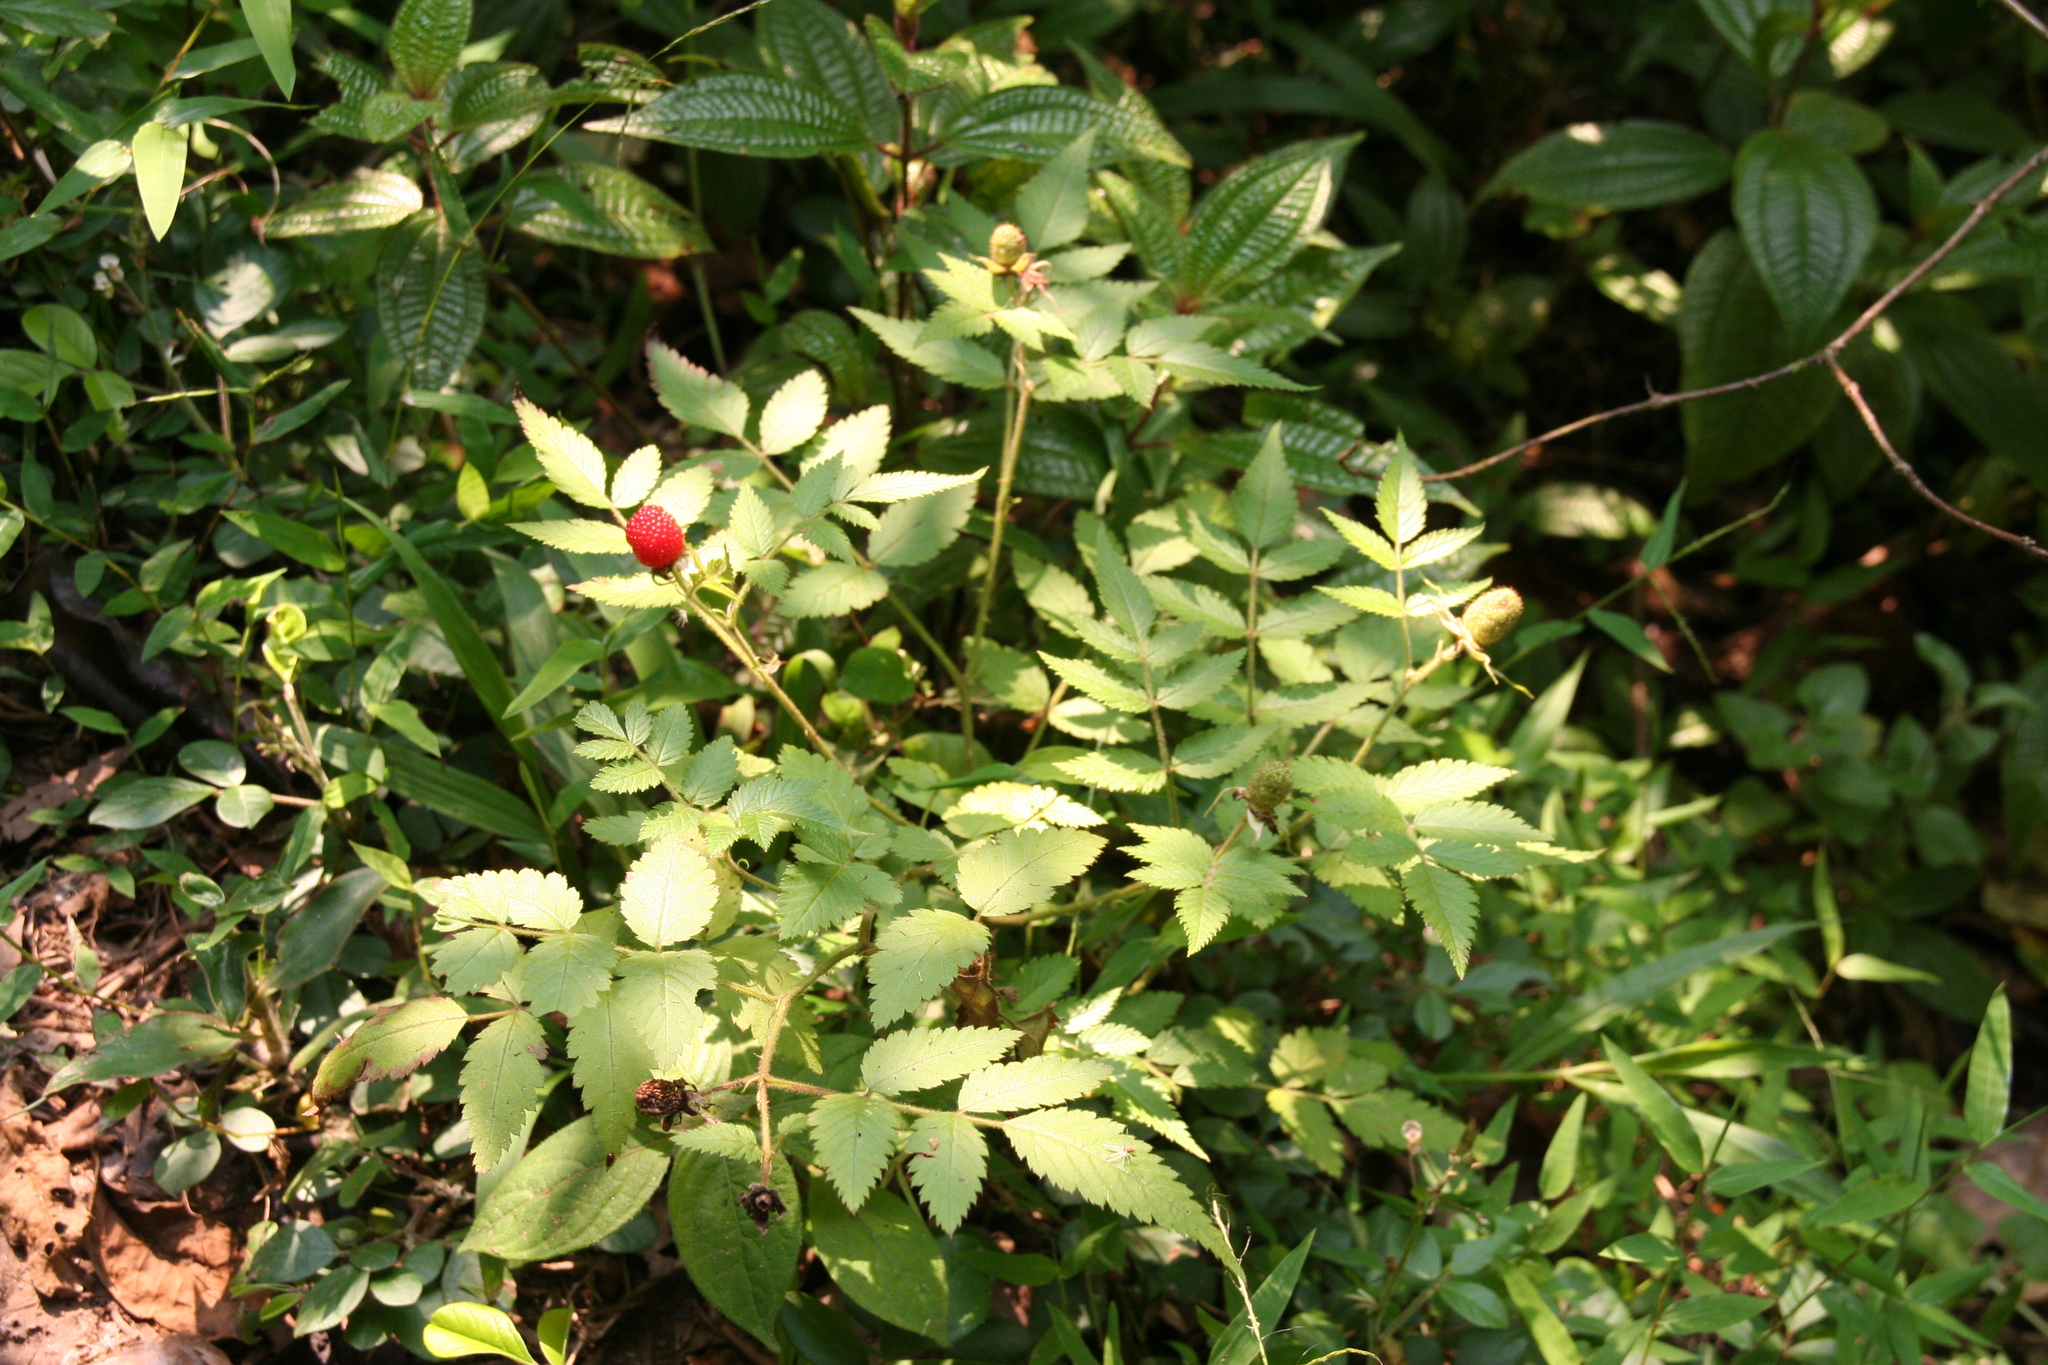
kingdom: Plantae
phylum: Tracheophyta
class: Magnoliopsida
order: Rosales
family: Rosaceae
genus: Rubus
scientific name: Rubus rosifolius
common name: Roseleaf raspberry
